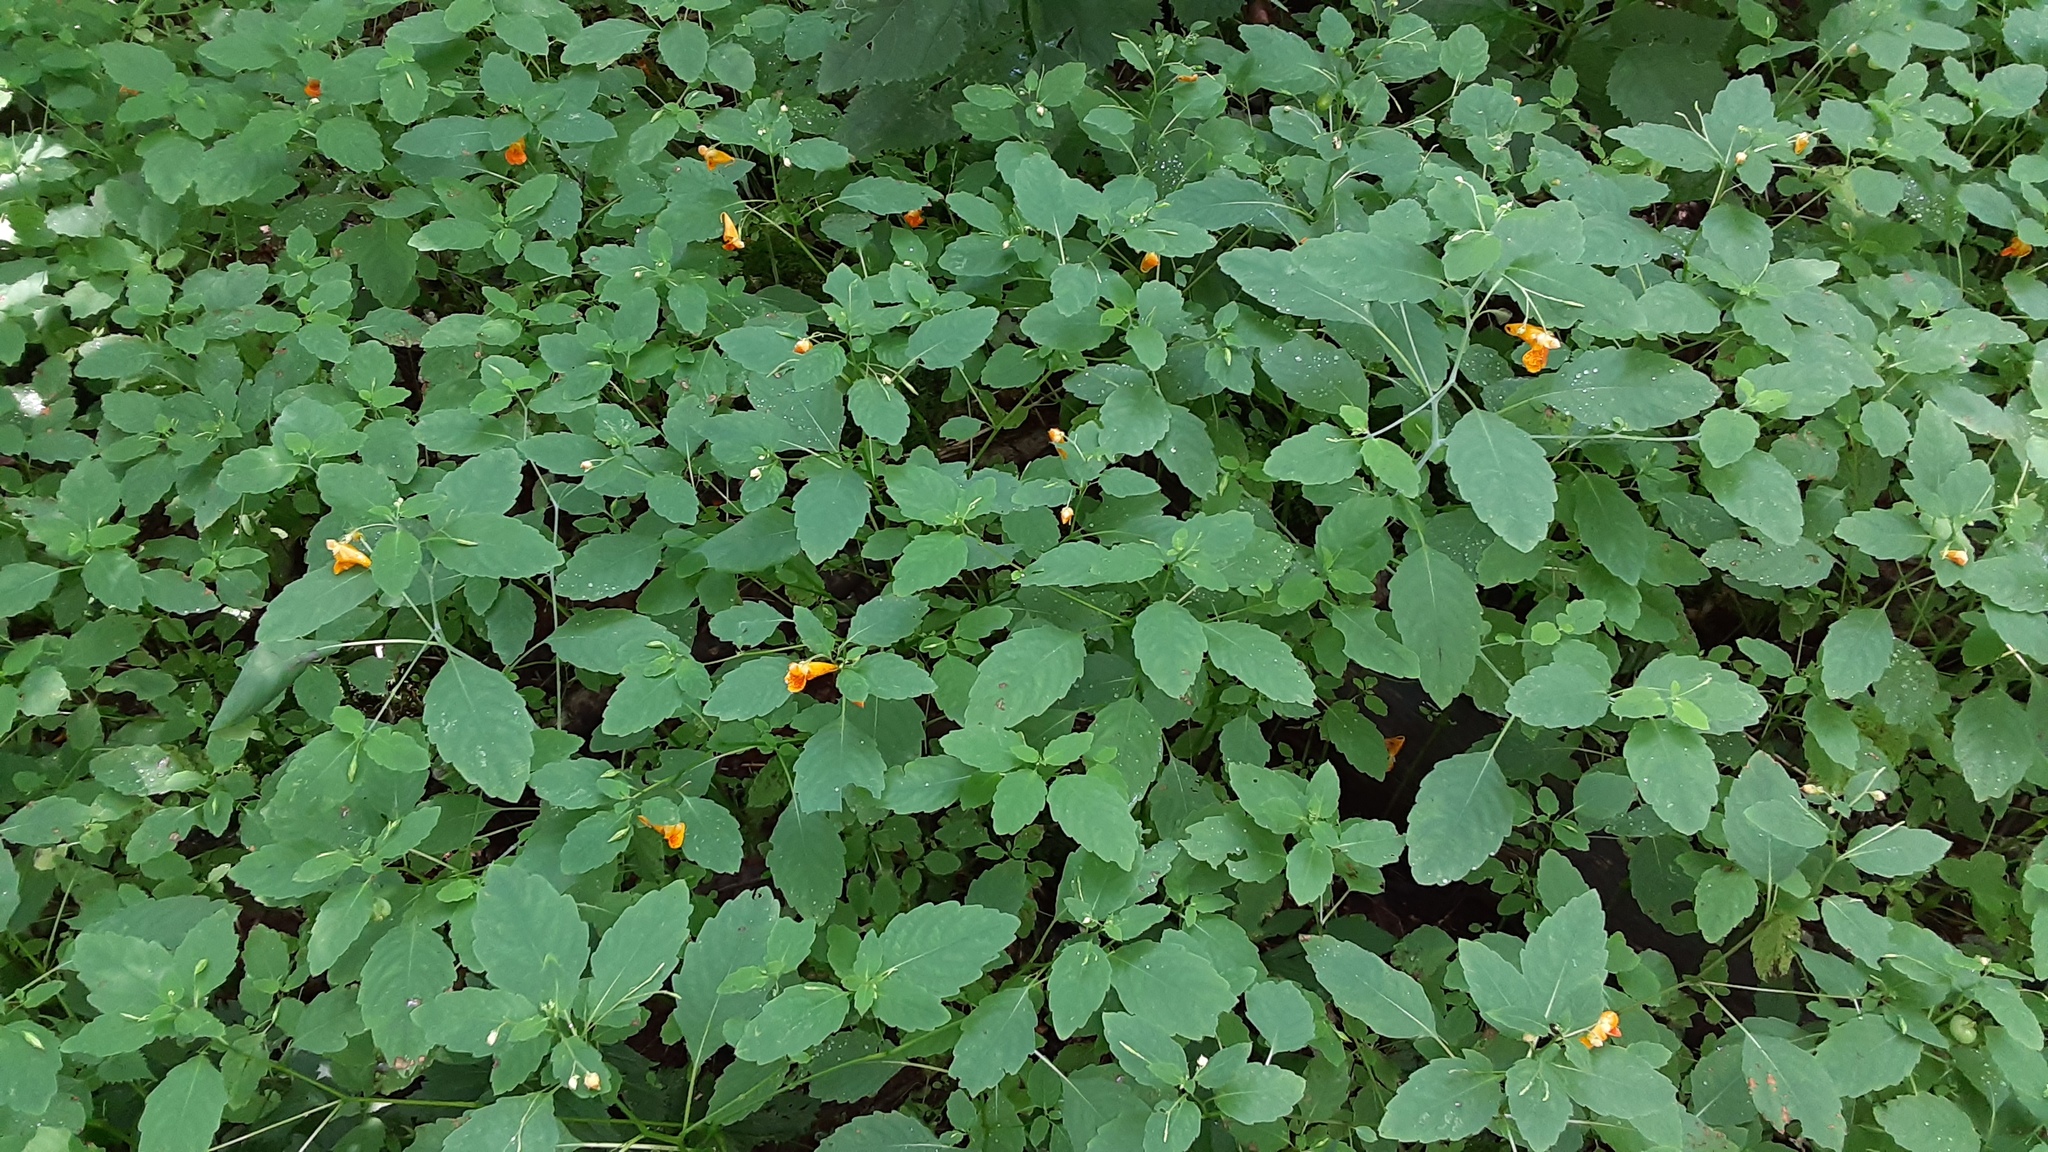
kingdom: Plantae
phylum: Tracheophyta
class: Magnoliopsida
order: Ericales
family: Balsaminaceae
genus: Impatiens
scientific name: Impatiens capensis
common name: Orange balsam
